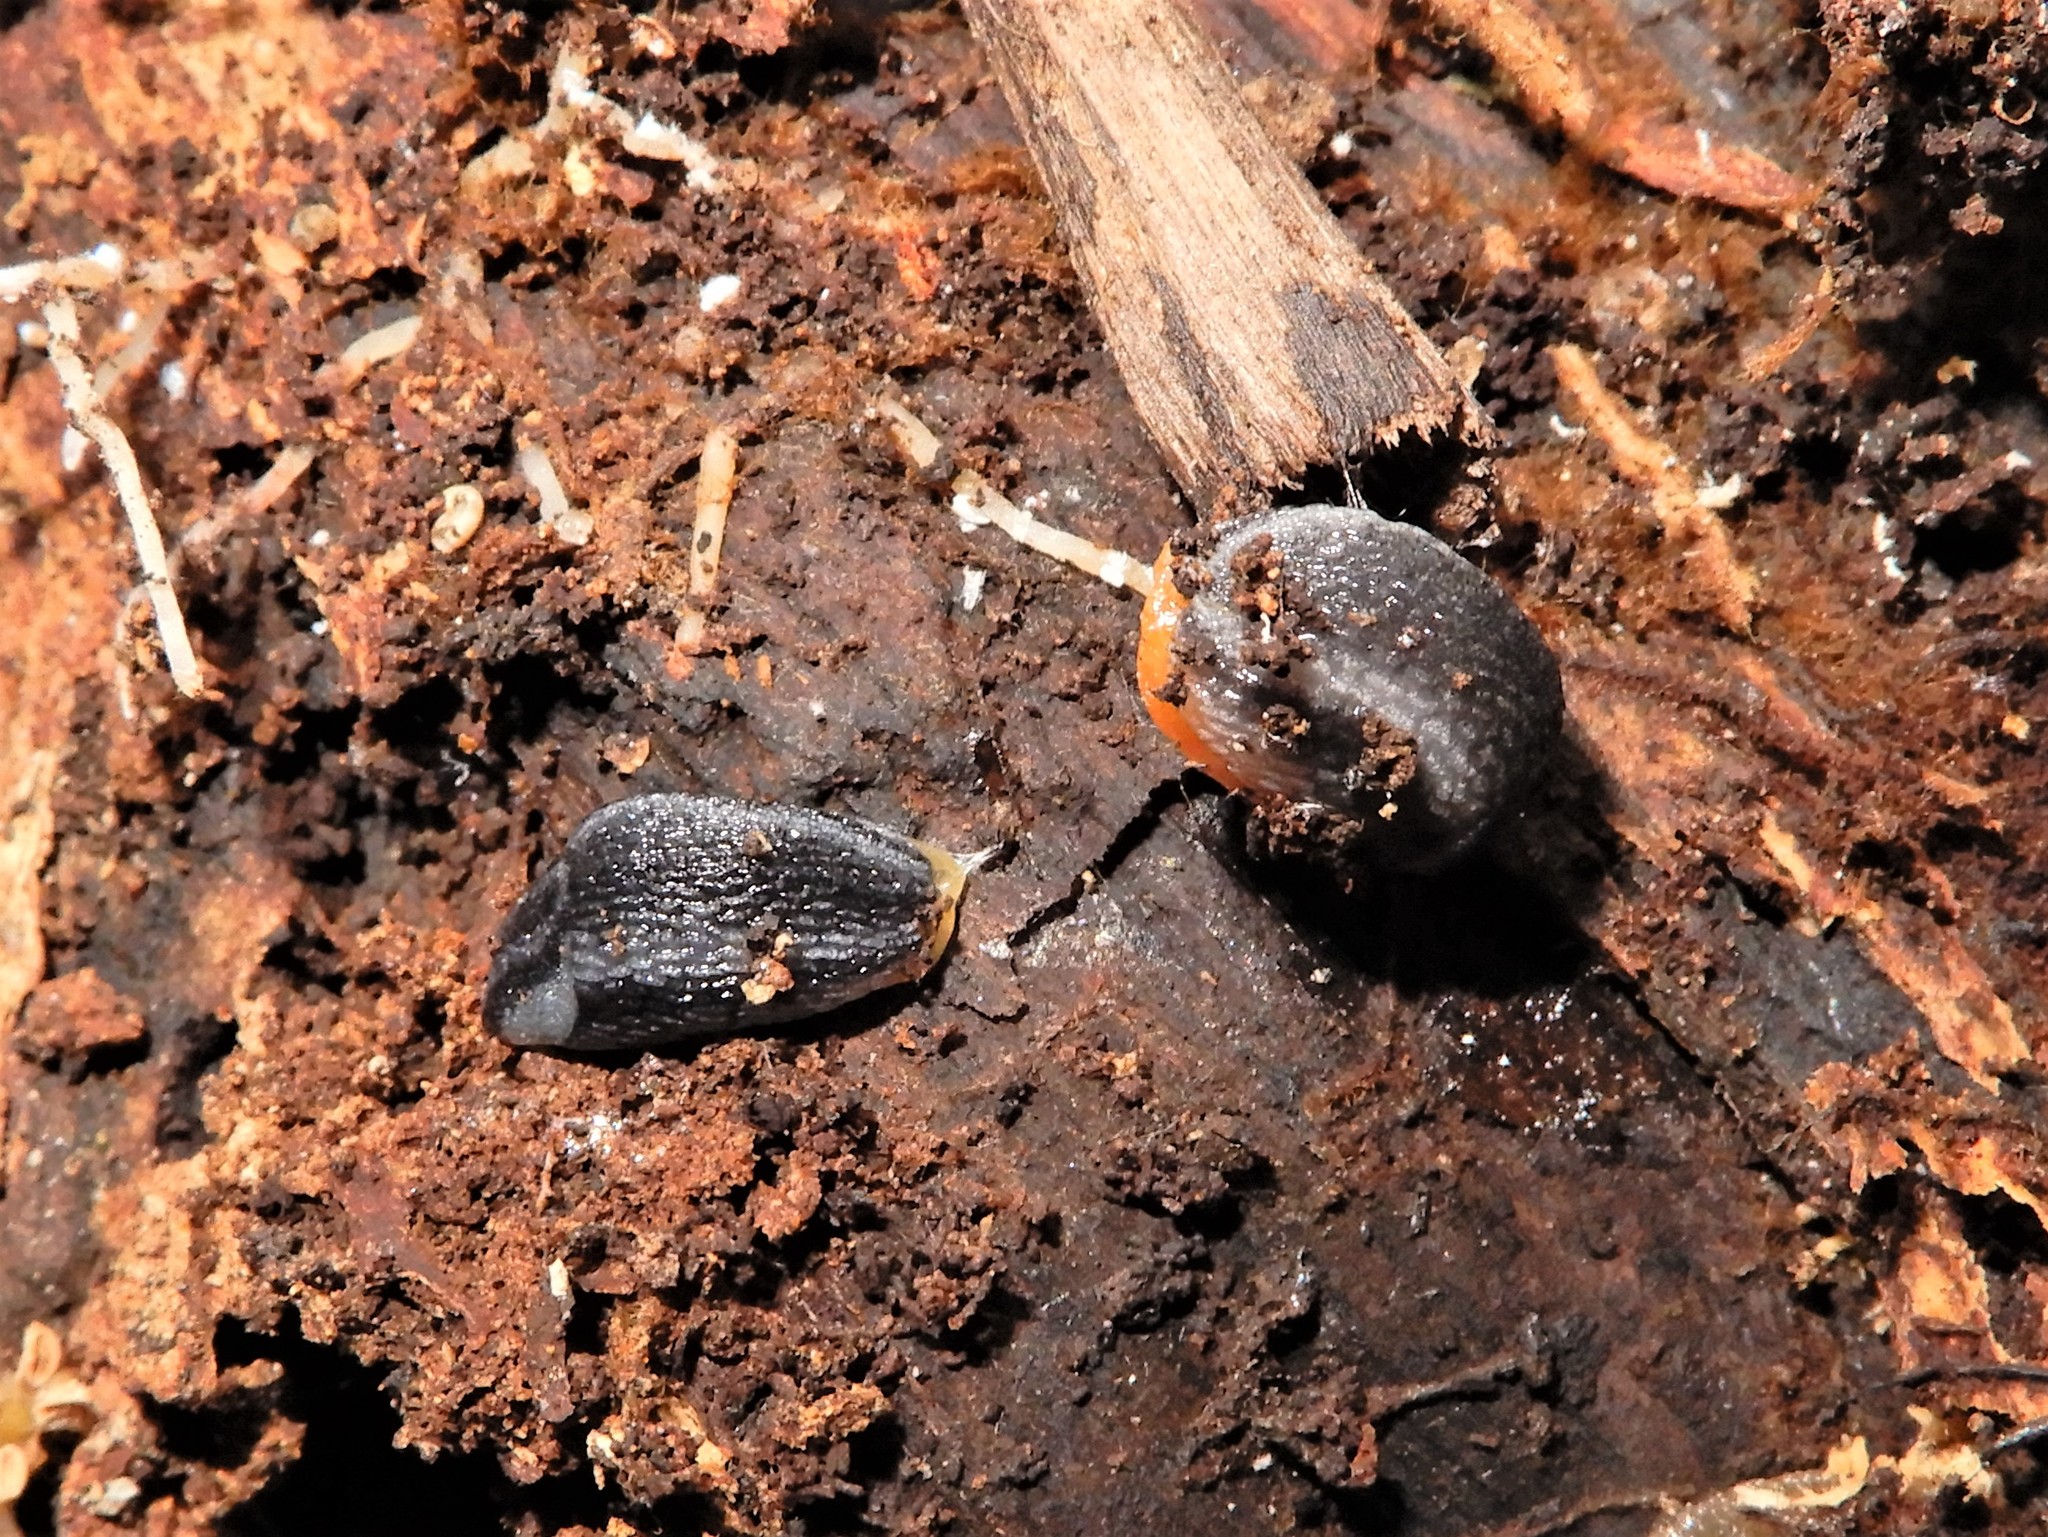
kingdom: Animalia
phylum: Mollusca
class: Gastropoda
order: Stylommatophora
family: Arionidae
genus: Arion
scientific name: Arion hortensis
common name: Garden arion
